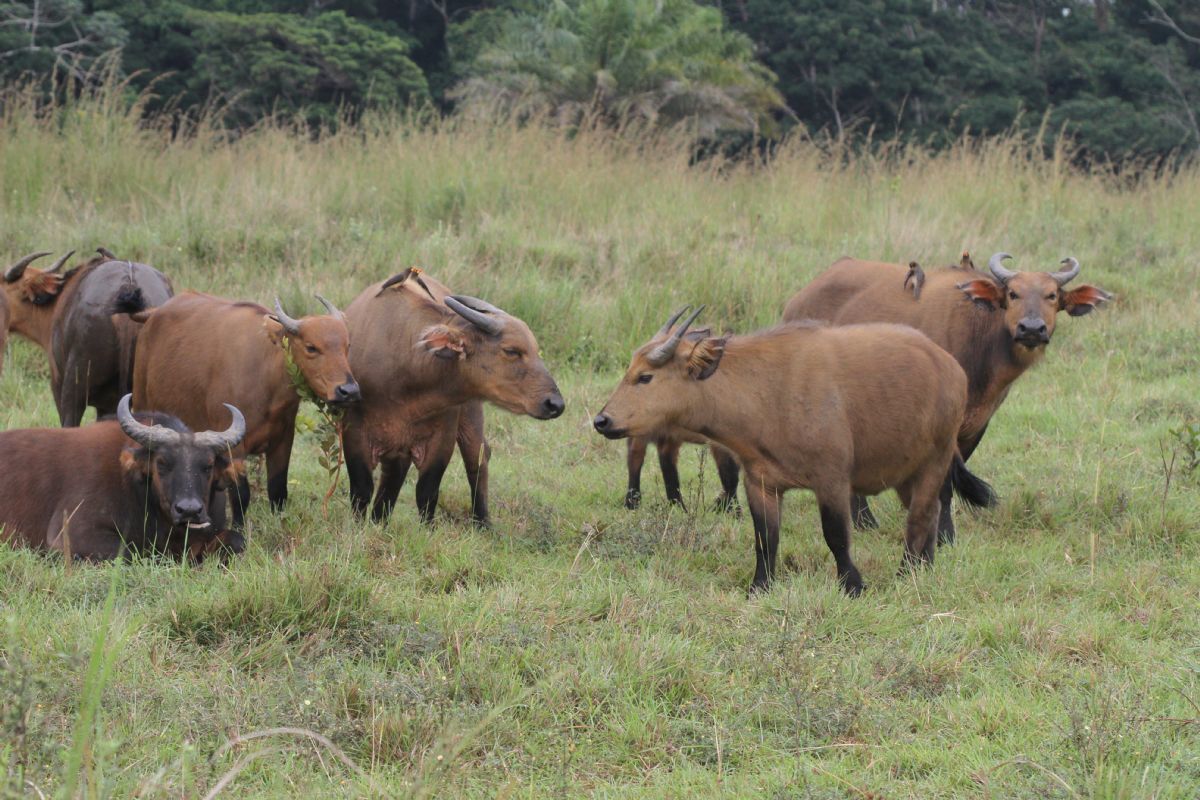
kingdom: Animalia
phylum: Chordata
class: Mammalia
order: Artiodactyla
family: Bovidae
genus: Syncerus
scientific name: Syncerus caffer
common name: African buffalo
